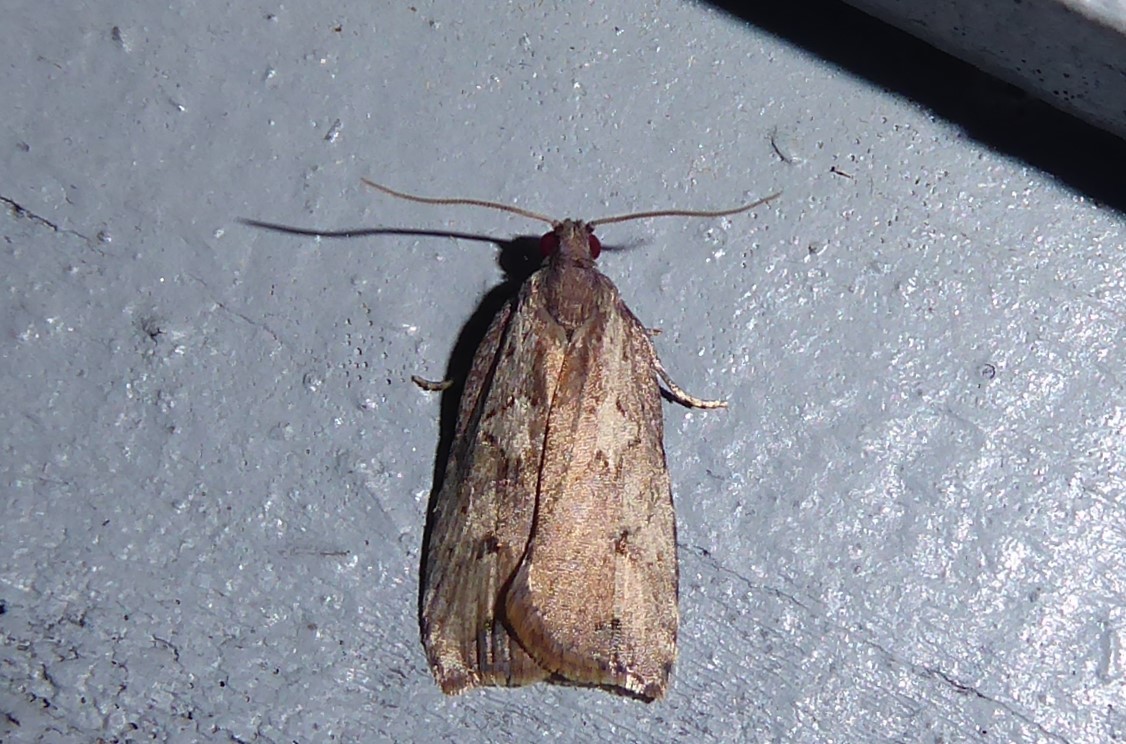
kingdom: Animalia
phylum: Arthropoda
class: Insecta
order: Lepidoptera
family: Tortricidae
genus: Planotortrix
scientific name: Planotortrix notophaea
